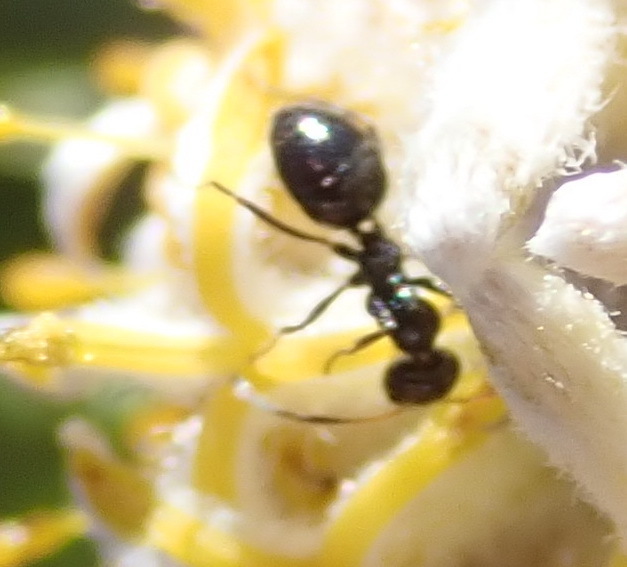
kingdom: Animalia
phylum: Arthropoda
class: Insecta
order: Hymenoptera
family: Formicidae
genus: Anoplolepis
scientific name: Anoplolepis steingroeveri
